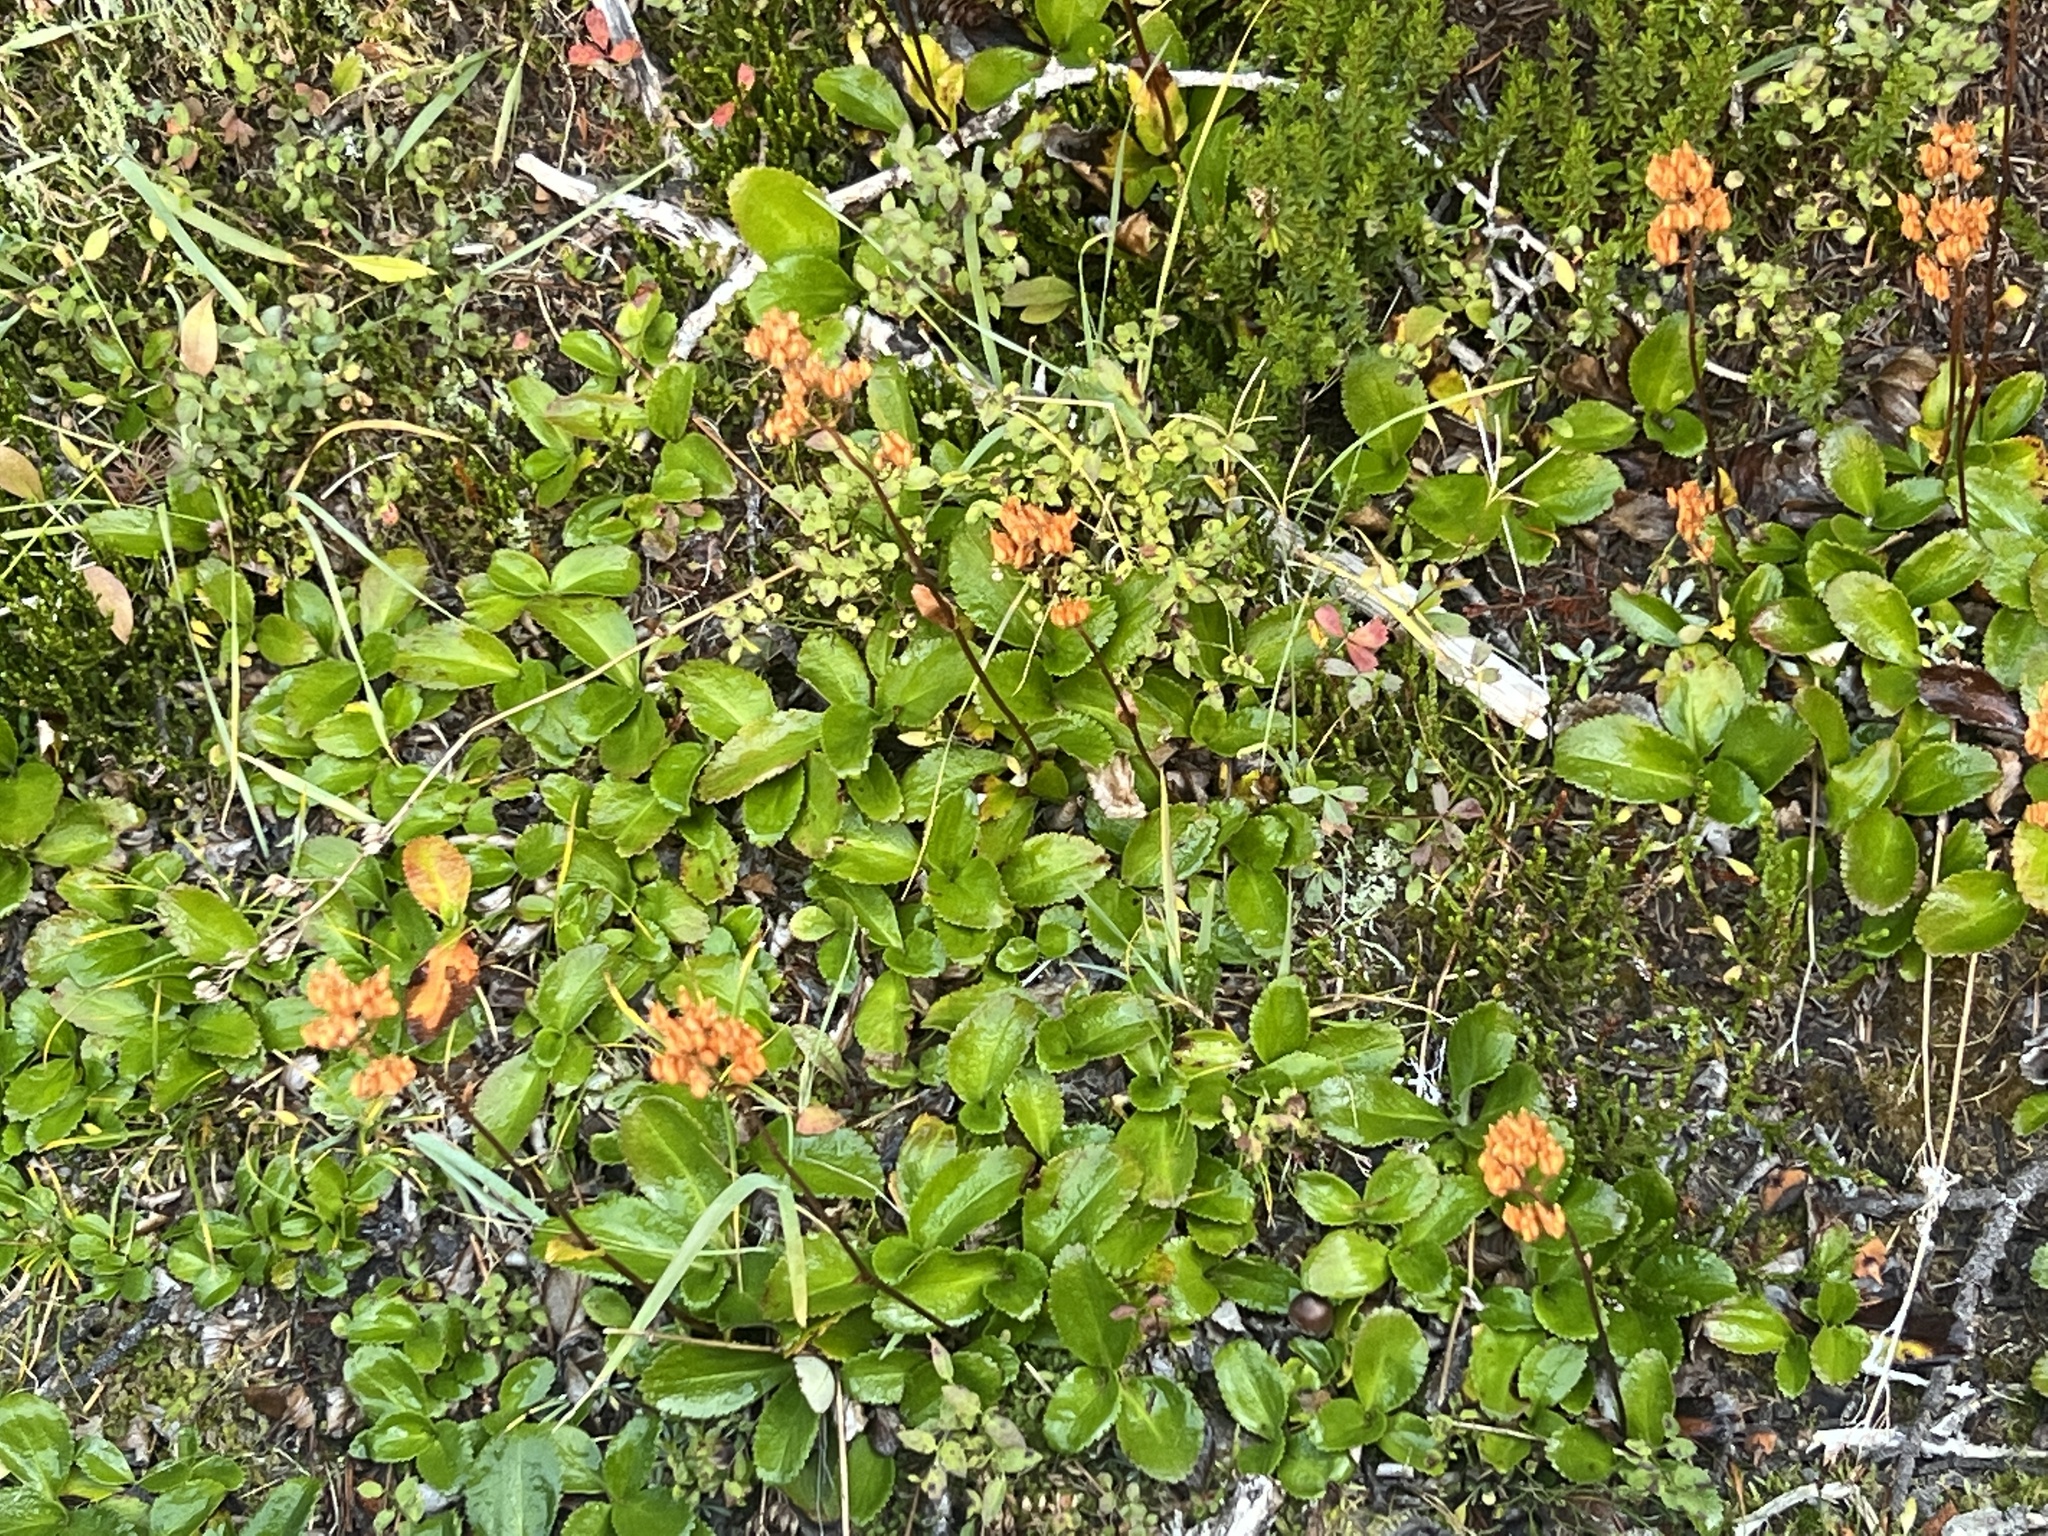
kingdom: Plantae
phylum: Tracheophyta
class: Magnoliopsida
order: Saxifragales
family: Saxifragaceae
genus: Leptarrhena
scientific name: Leptarrhena pyrolifolia
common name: Leatherleaf-saxifrage
